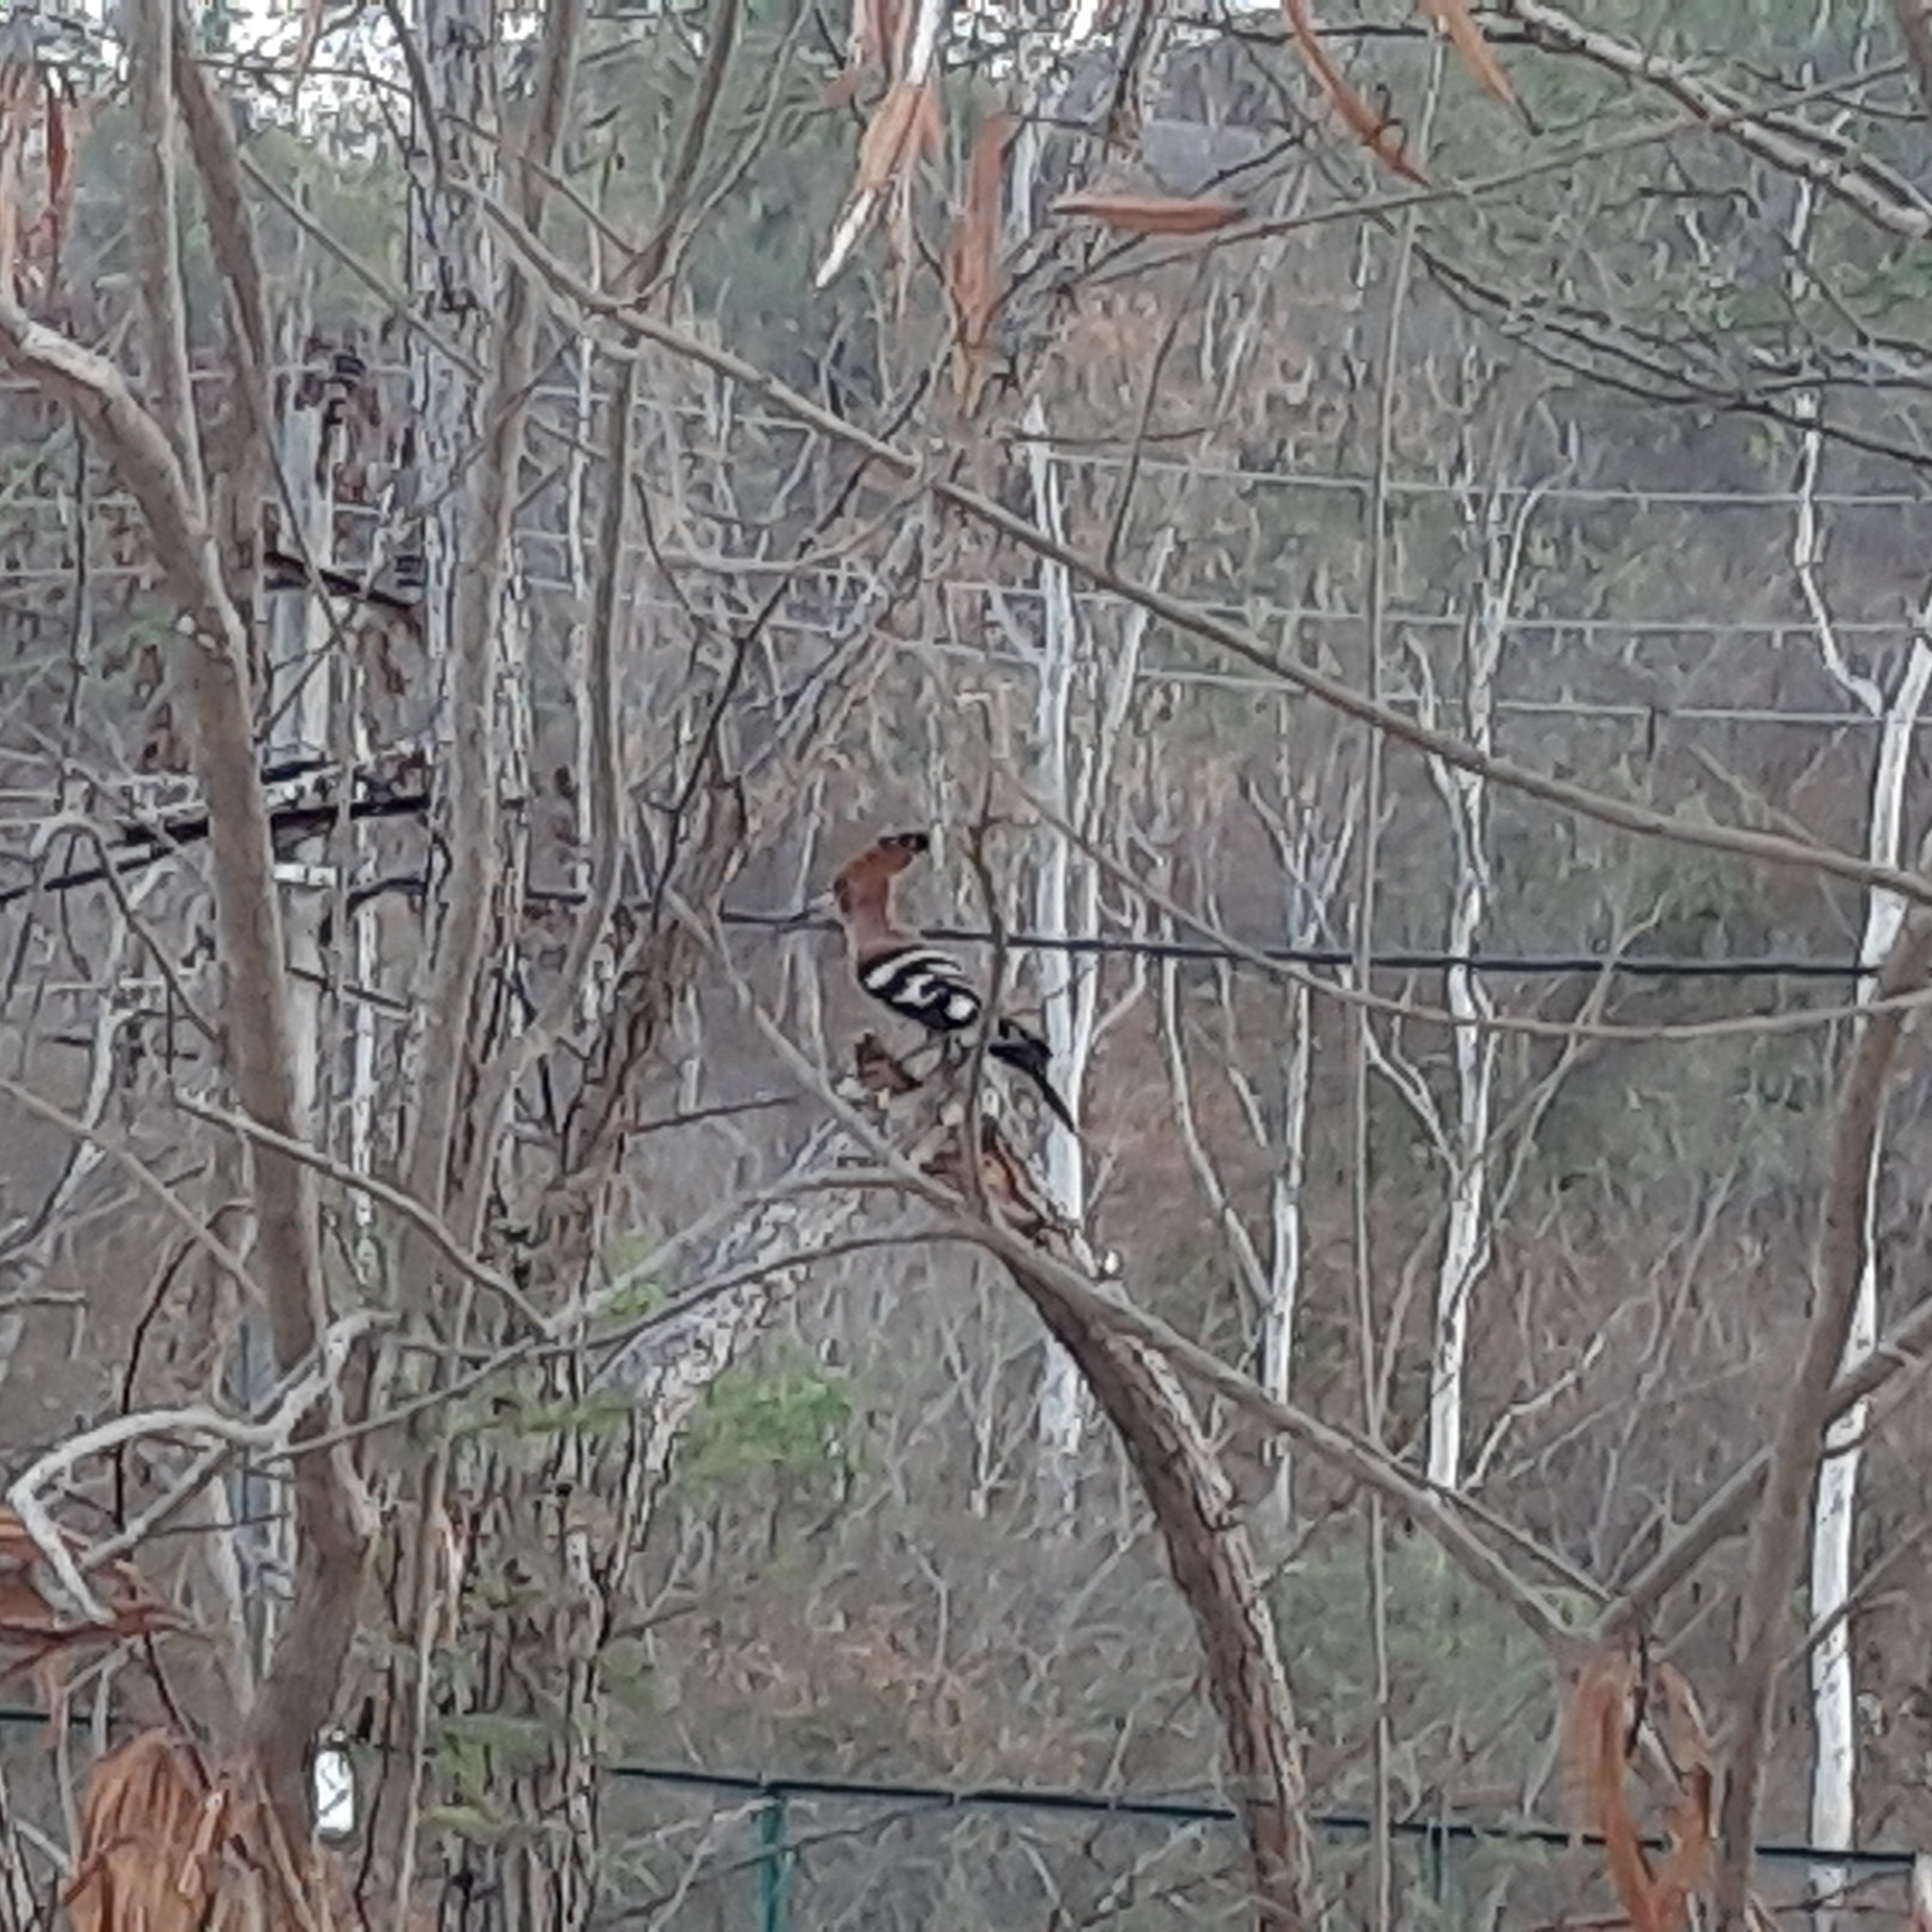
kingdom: Animalia
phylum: Chordata
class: Aves
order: Bucerotiformes
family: Upupidae
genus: Upupa
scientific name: Upupa epops
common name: Eurasian hoopoe
